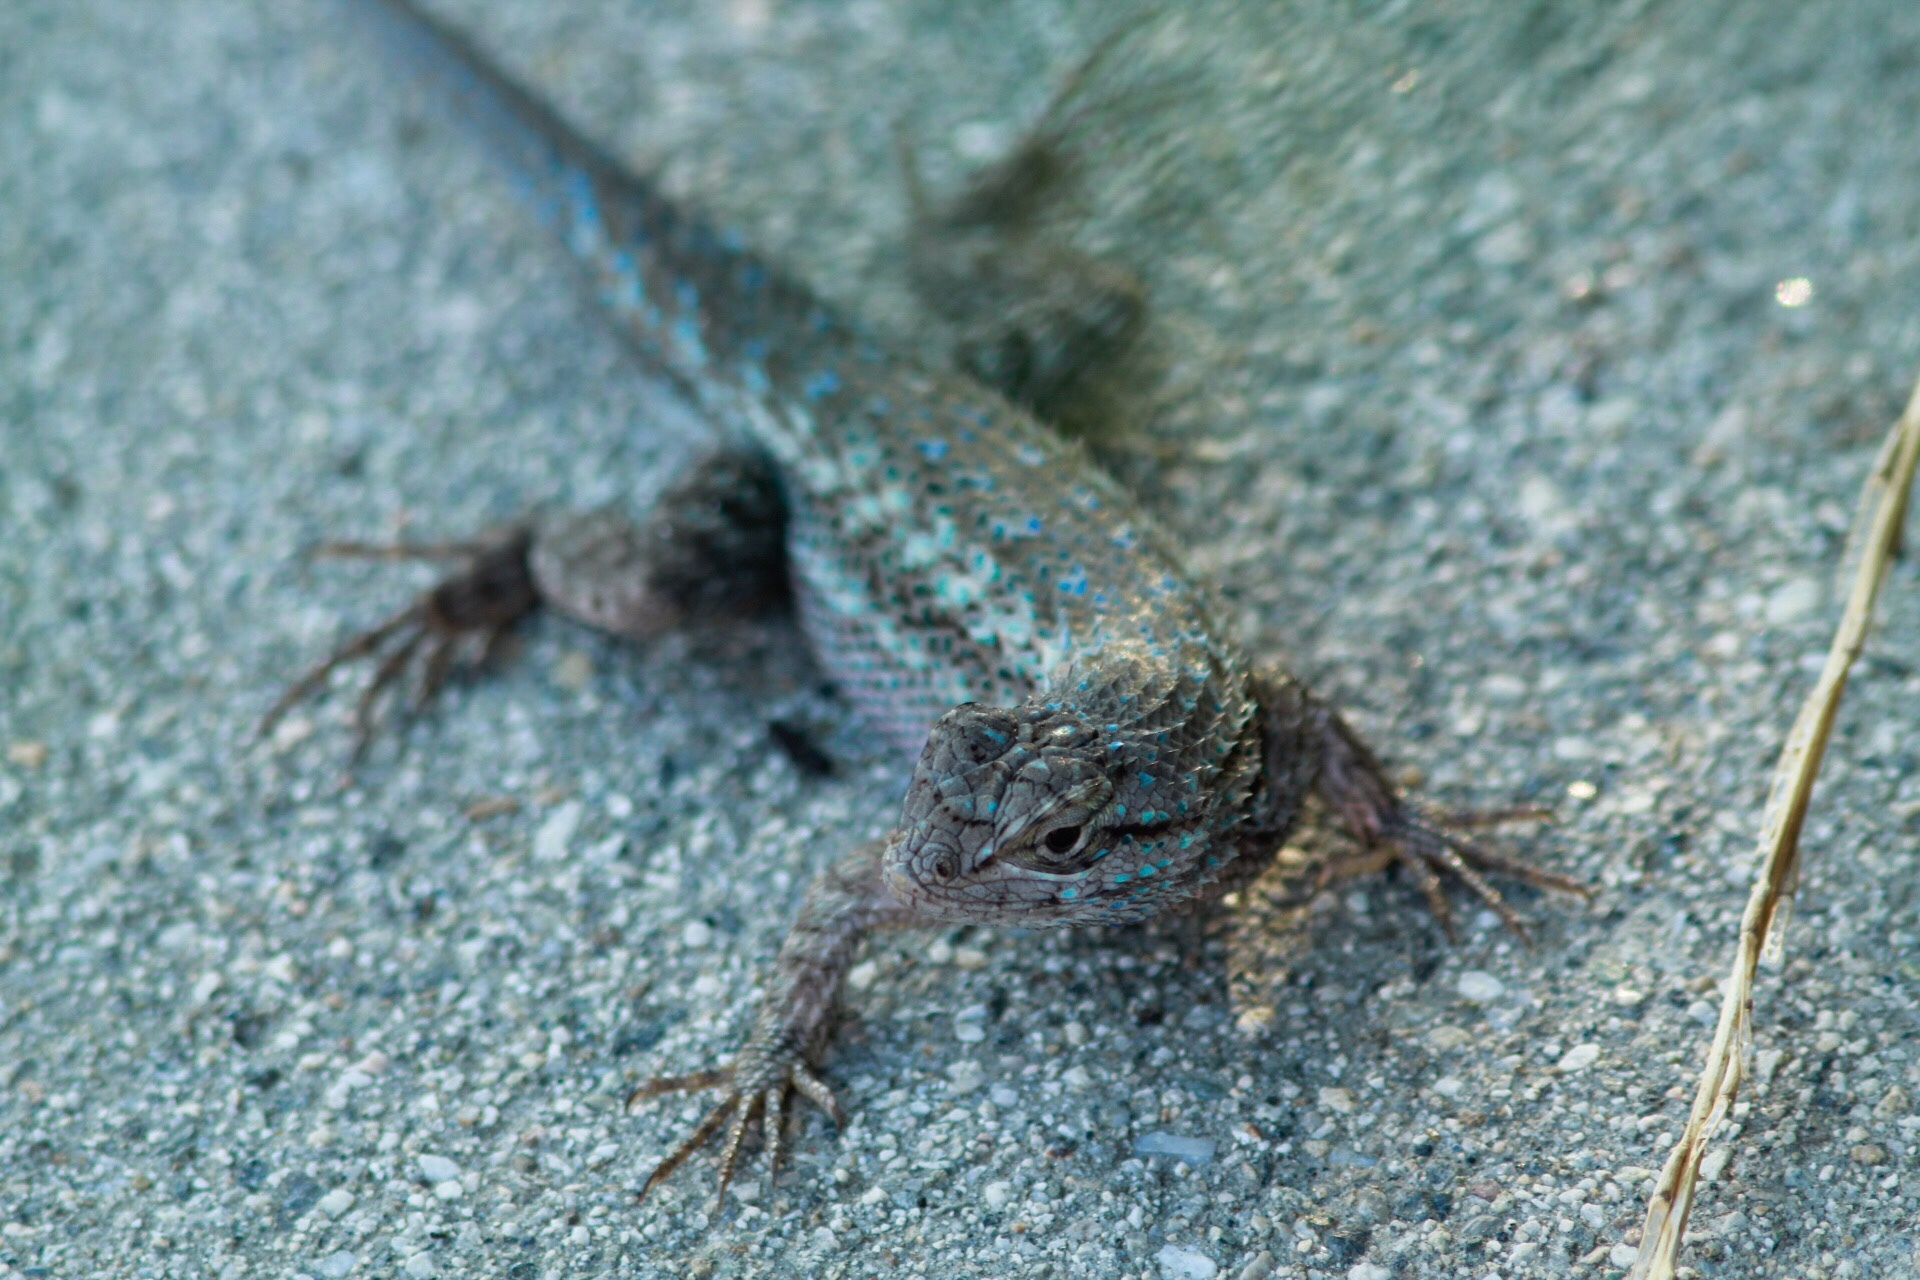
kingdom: Animalia
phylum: Chordata
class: Squamata
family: Phrynosomatidae
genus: Sceloporus
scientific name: Sceloporus occidentalis
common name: Western fence lizard
